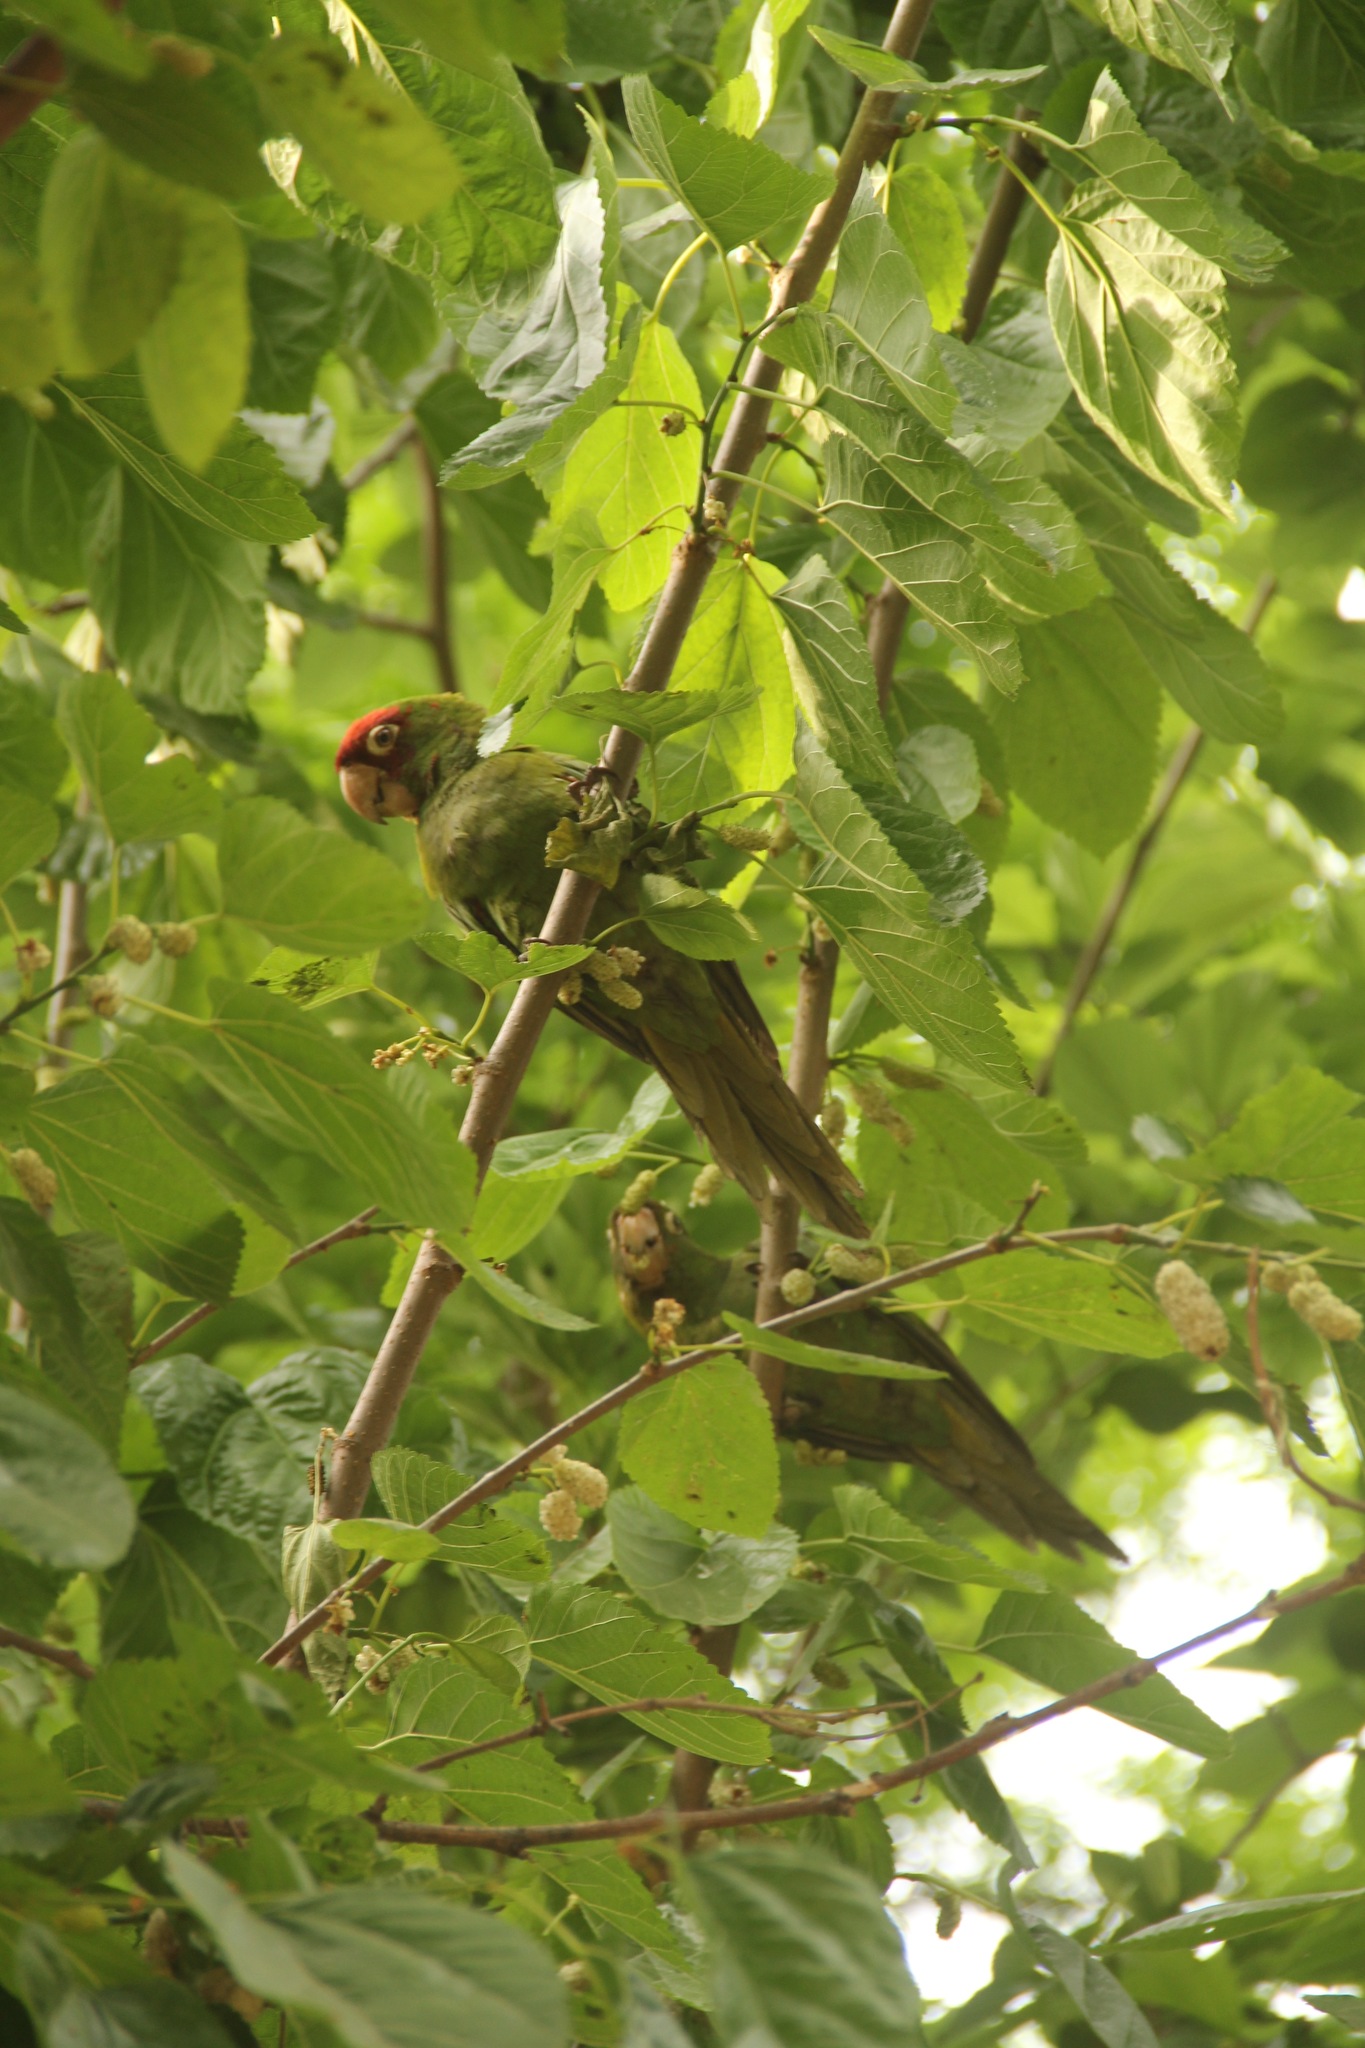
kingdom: Animalia
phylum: Chordata
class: Aves
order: Psittaciformes
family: Psittacidae
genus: Aratinga
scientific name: Aratinga erythrogenys
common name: Red-masked parakeet
